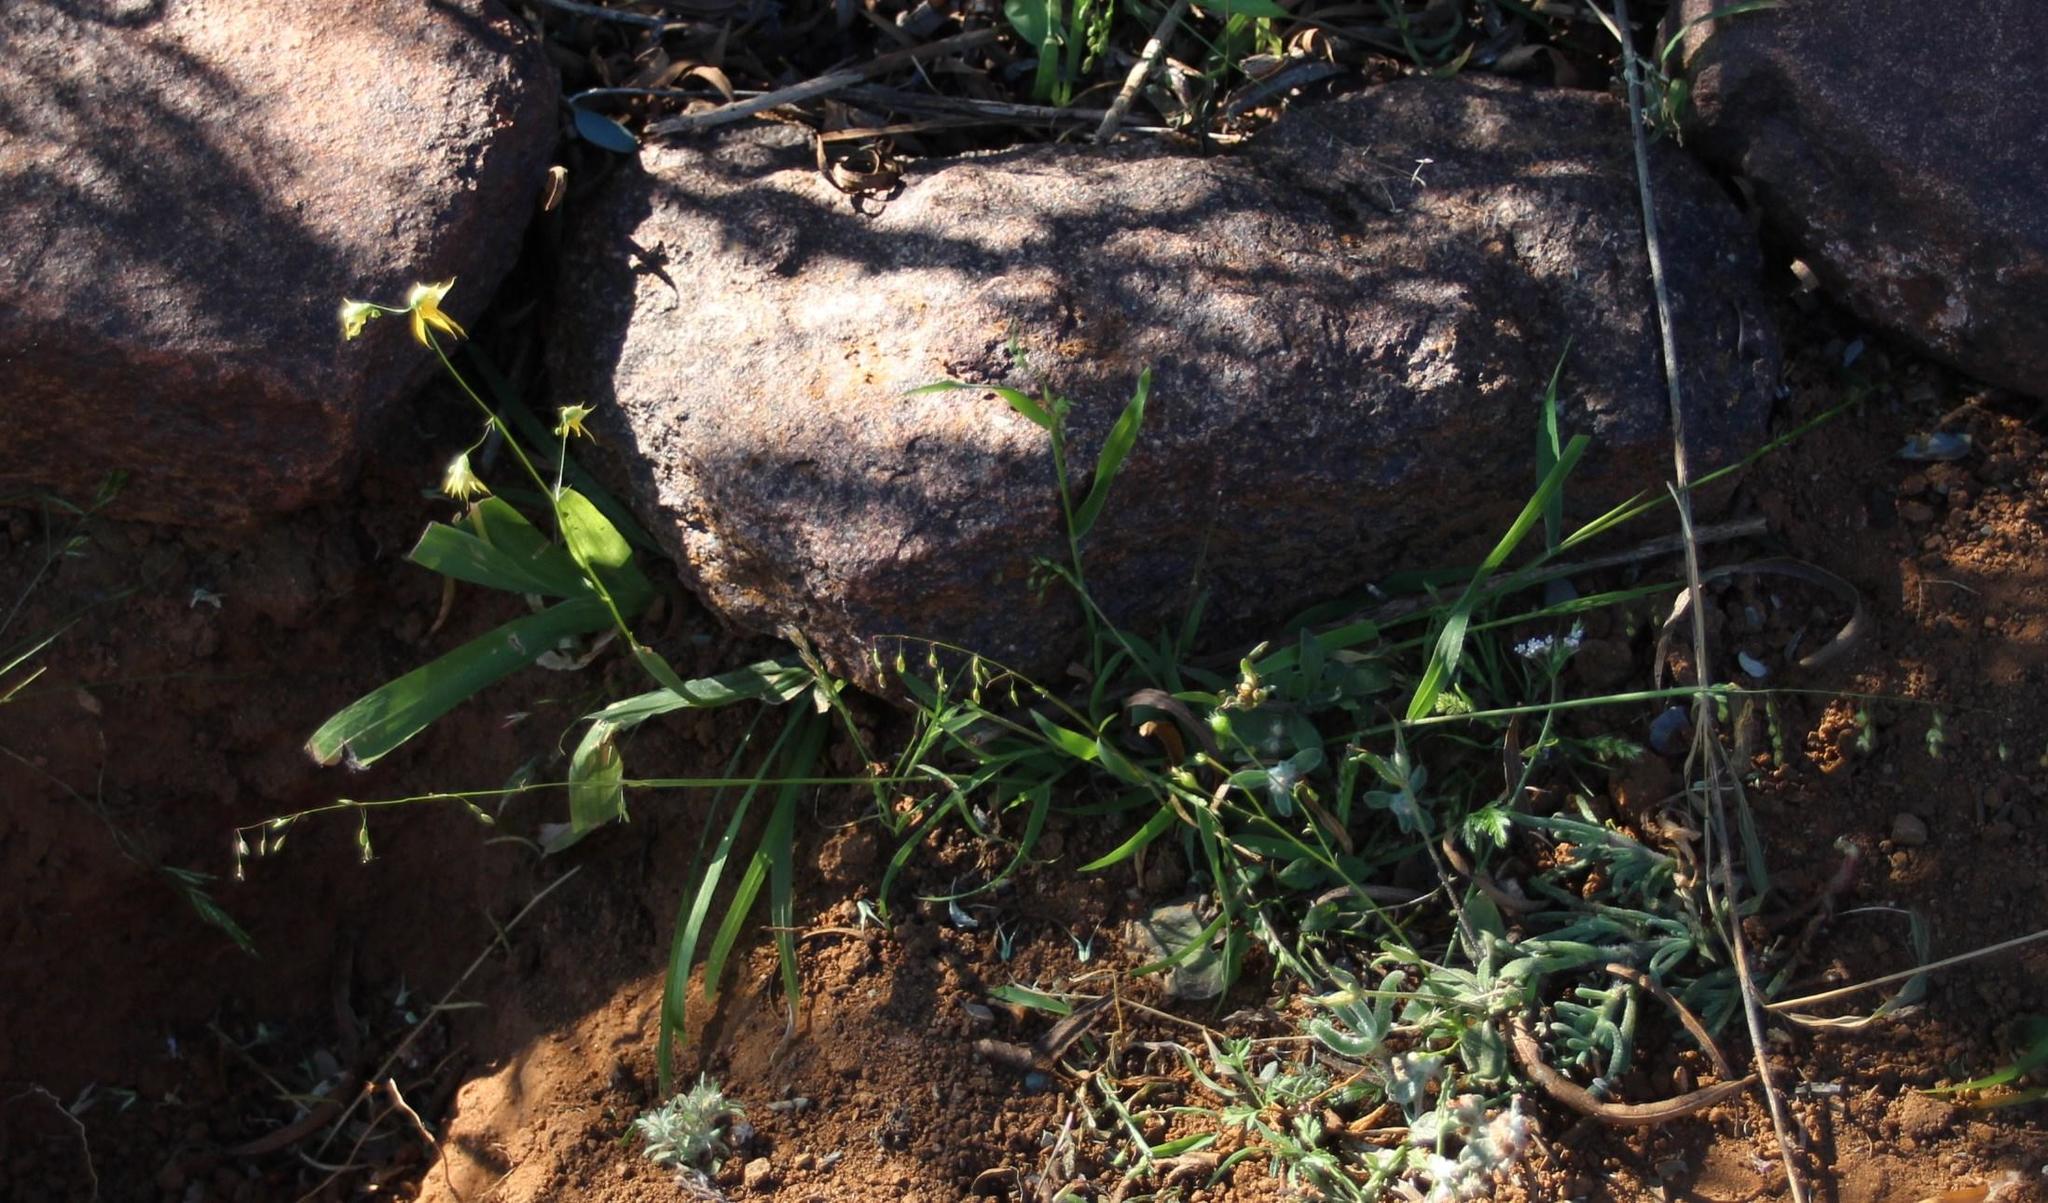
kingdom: Plantae
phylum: Tracheophyta
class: Liliopsida
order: Asparagales
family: Iridaceae
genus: Melasphaerula
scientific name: Melasphaerula graminea
